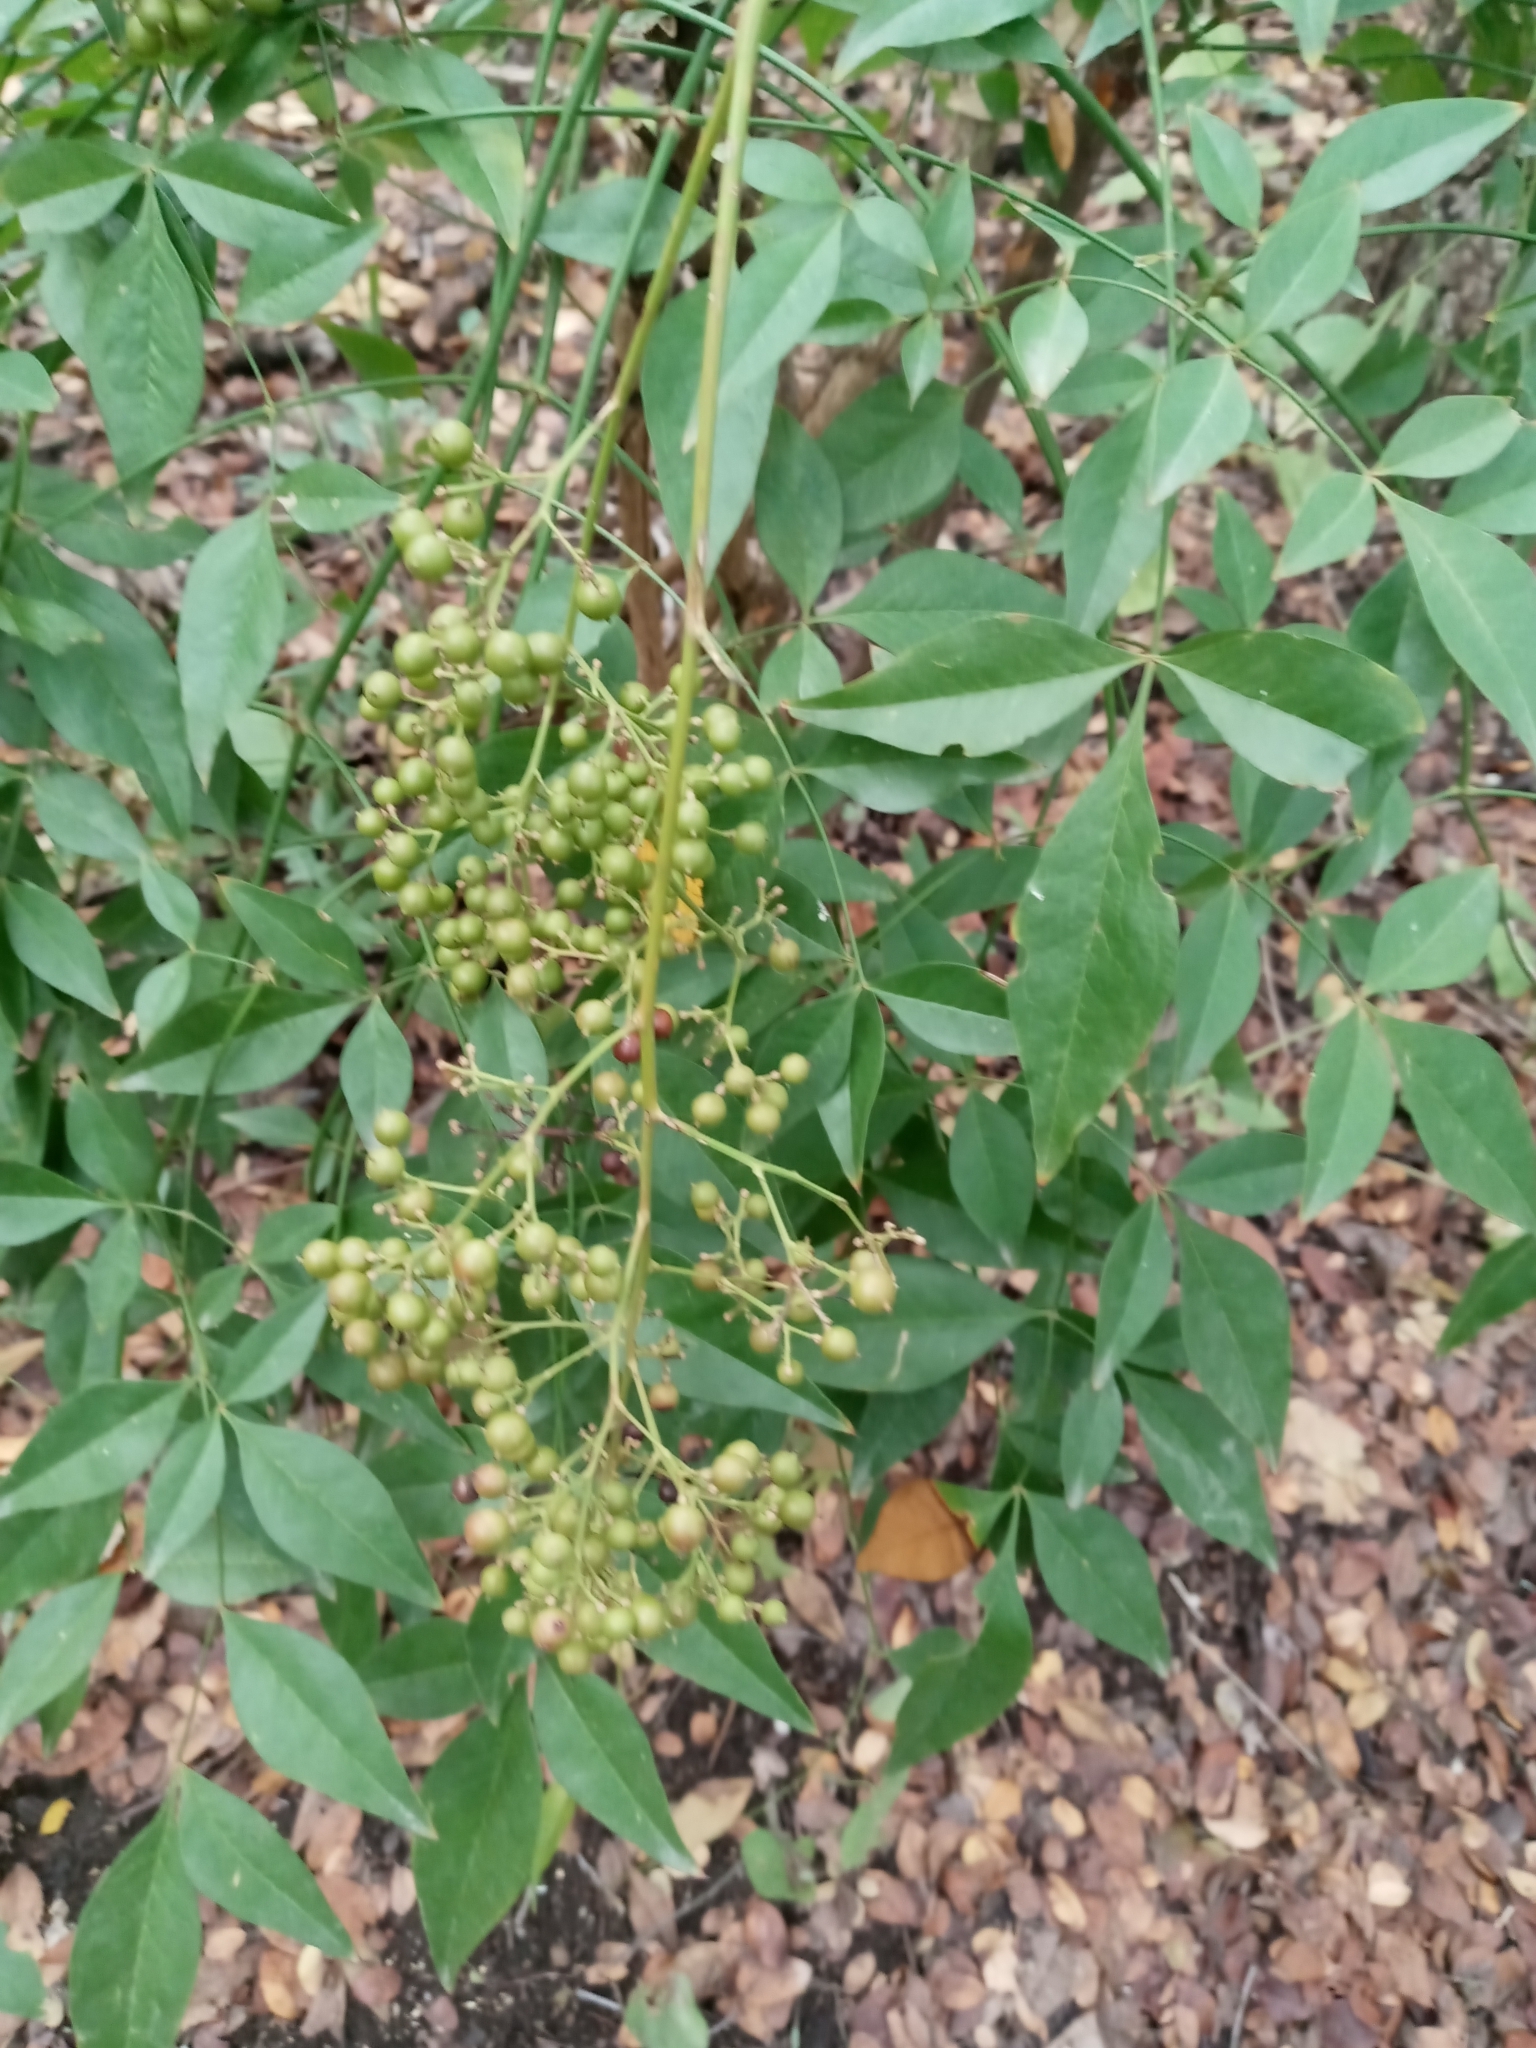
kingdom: Plantae
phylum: Tracheophyta
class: Magnoliopsida
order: Ranunculales
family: Berberidaceae
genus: Nandina
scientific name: Nandina domestica
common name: Sacred bamboo
